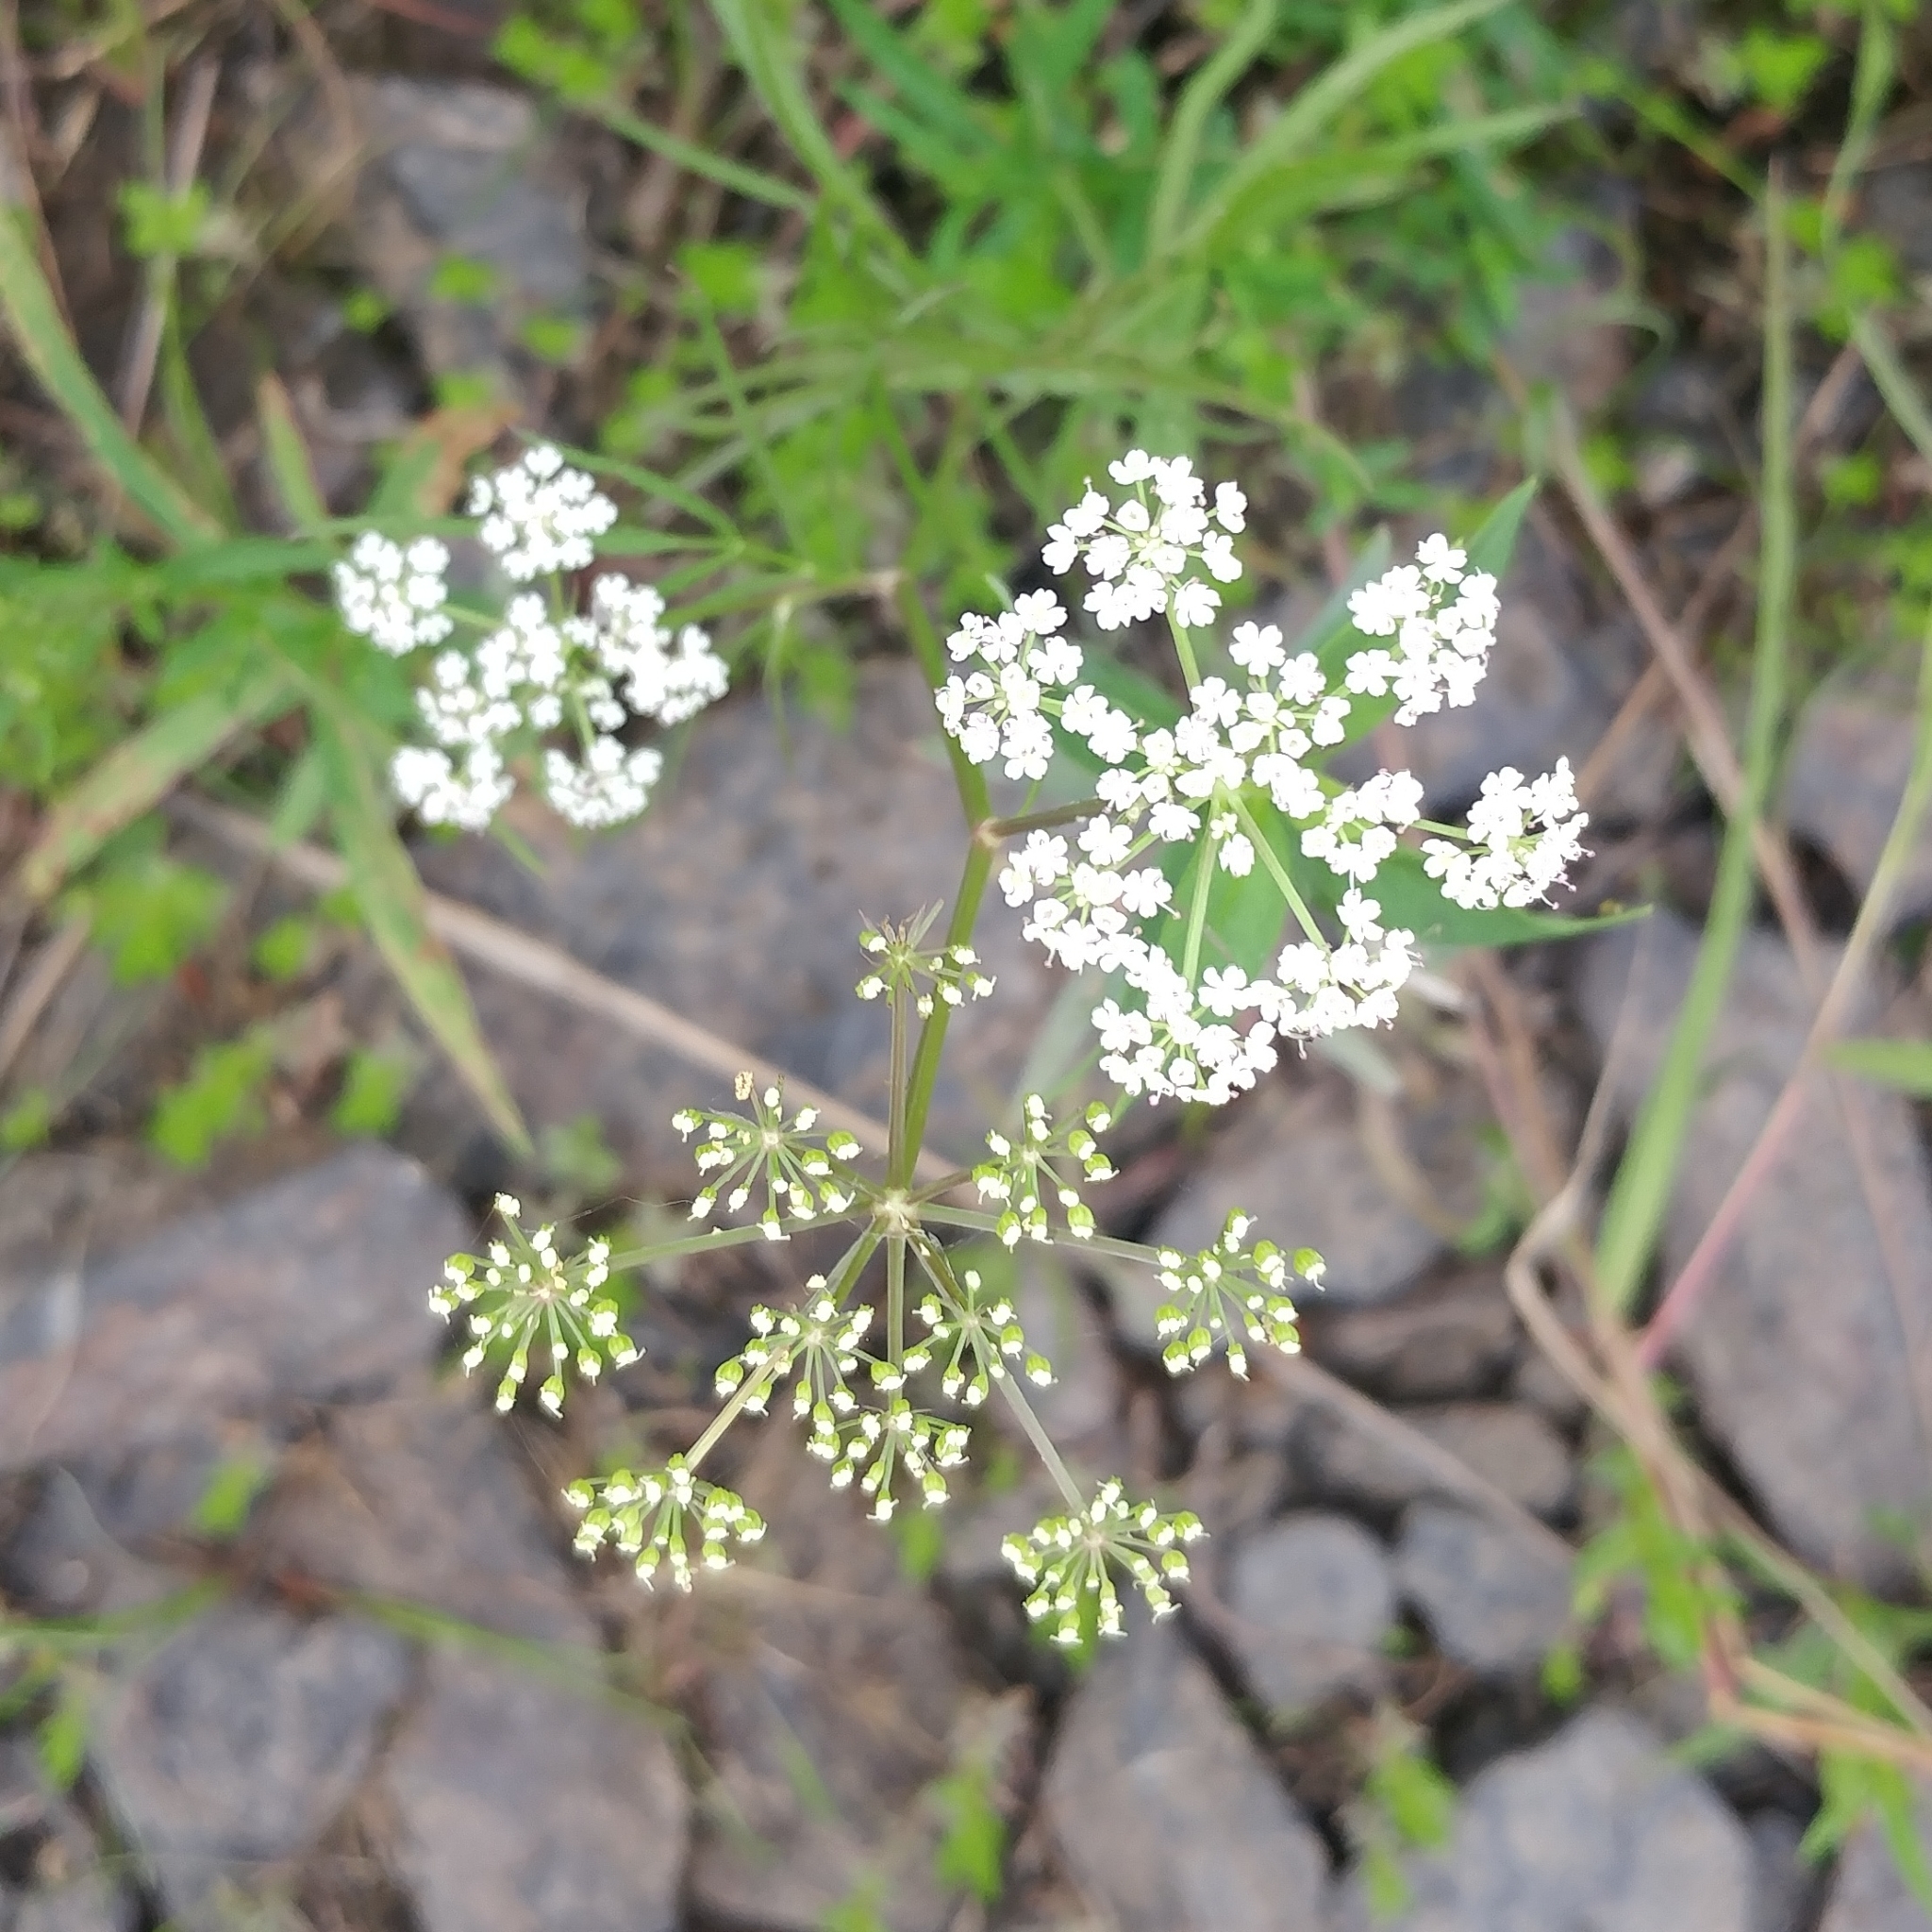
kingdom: Plantae
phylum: Tracheophyta
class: Magnoliopsida
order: Apiales
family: Apiaceae
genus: Sium
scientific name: Sium suave
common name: Hemlock water-parsnip
